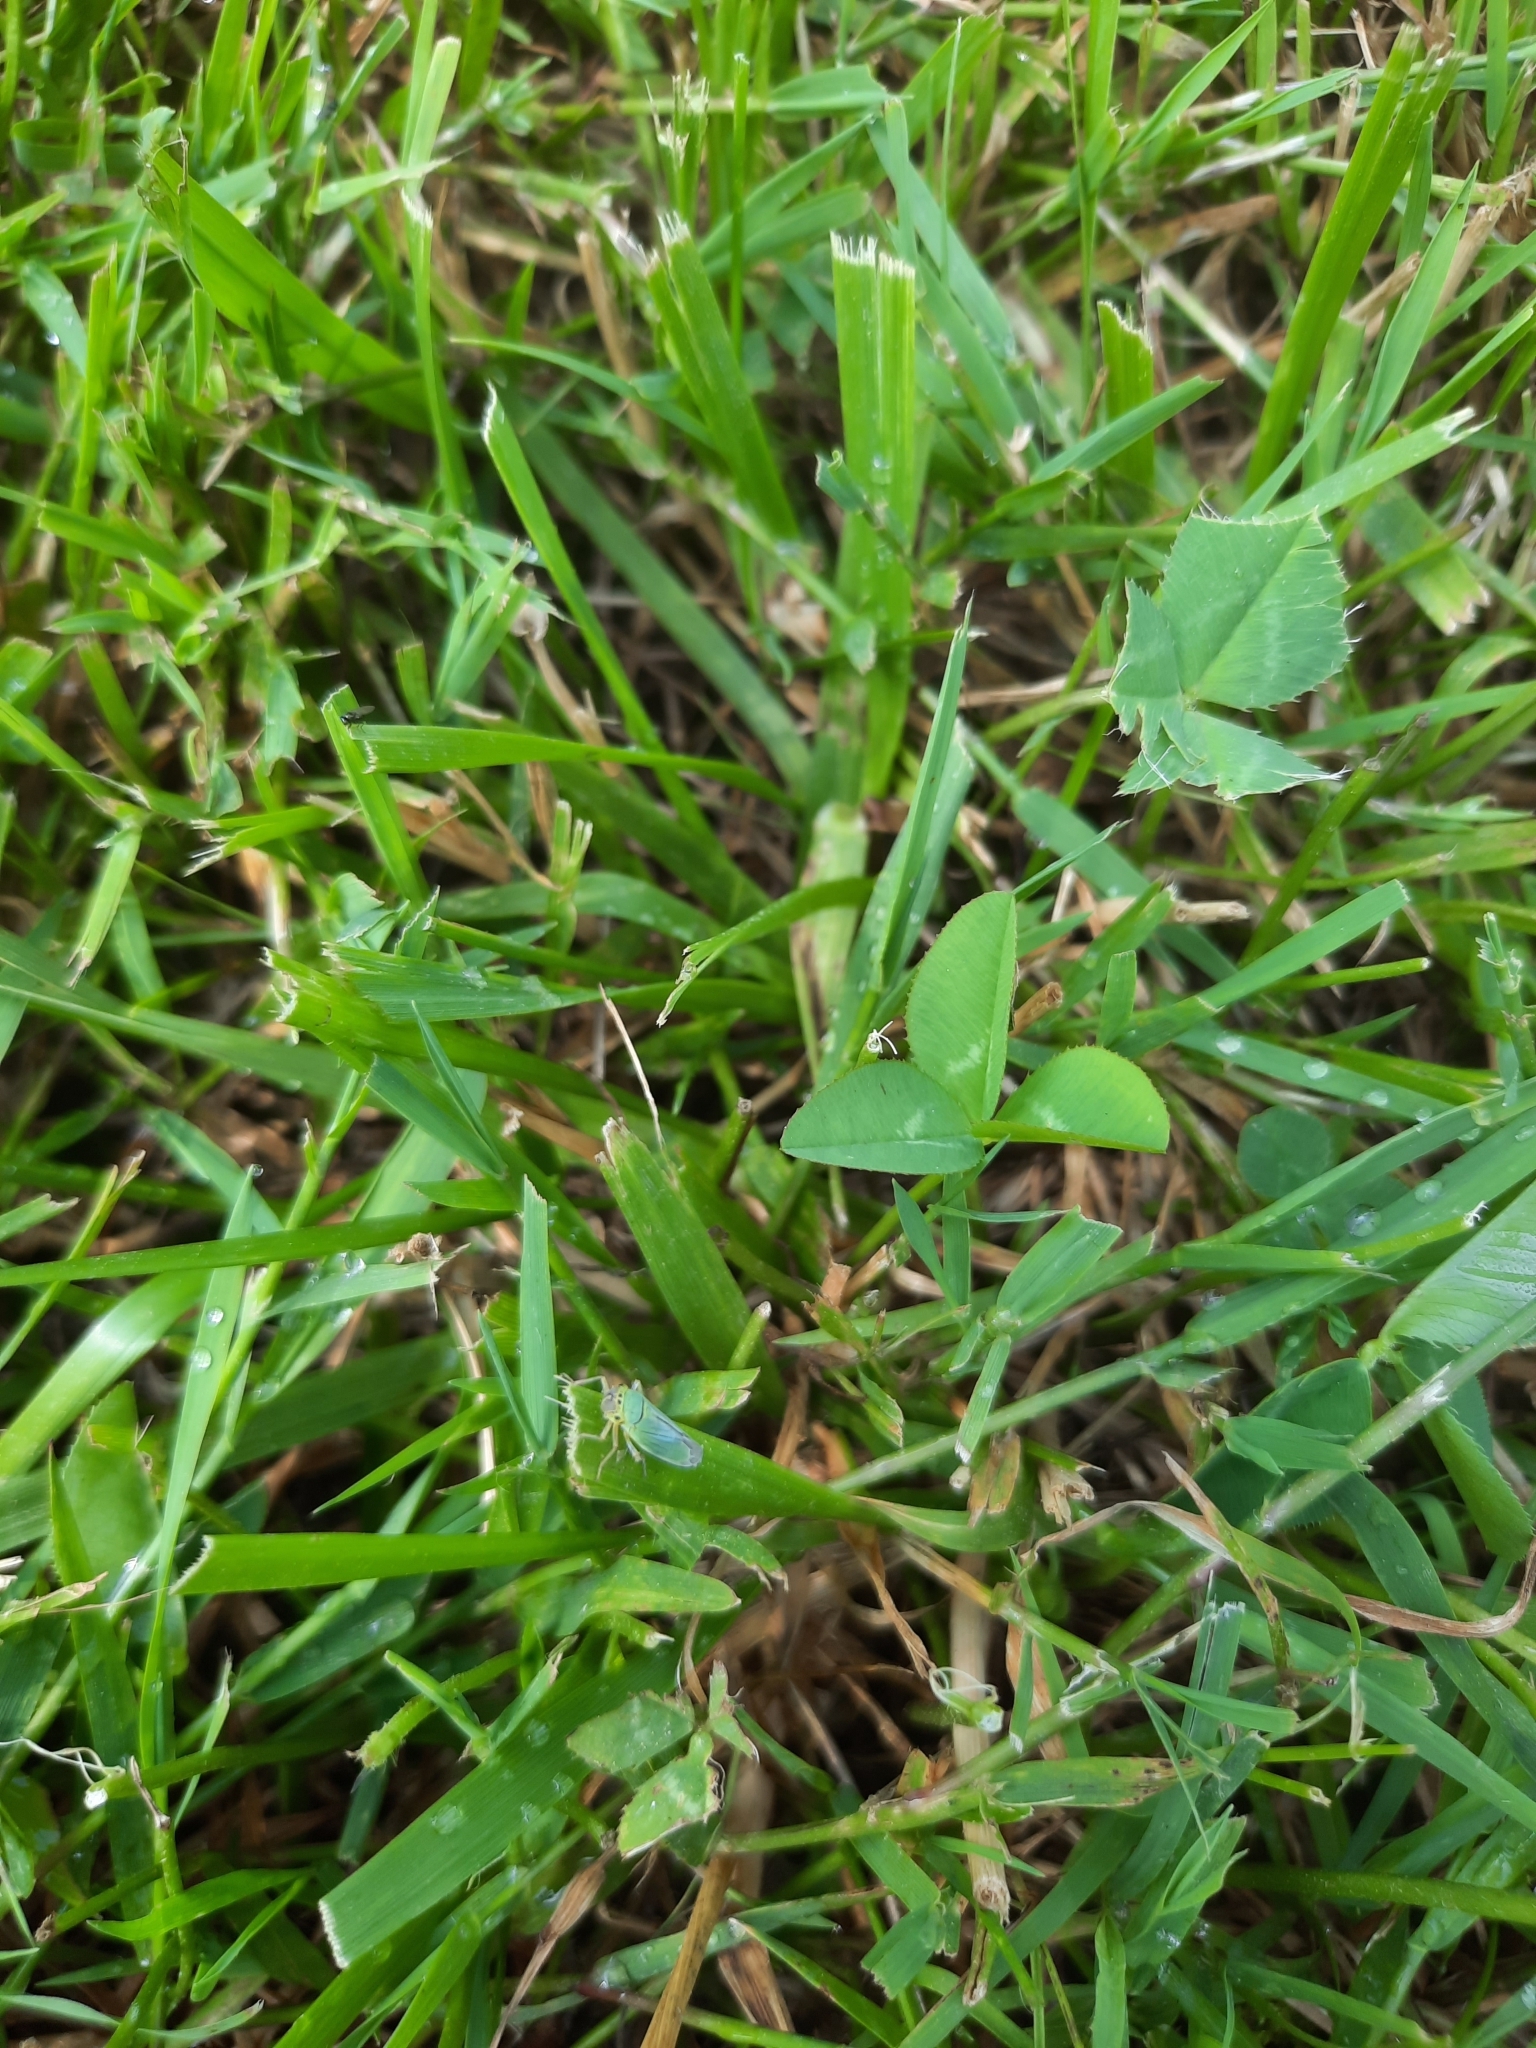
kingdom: Animalia
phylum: Arthropoda
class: Insecta
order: Hemiptera
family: Cicadellidae
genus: Cicadella
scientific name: Cicadella viridis
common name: Leafhopper
